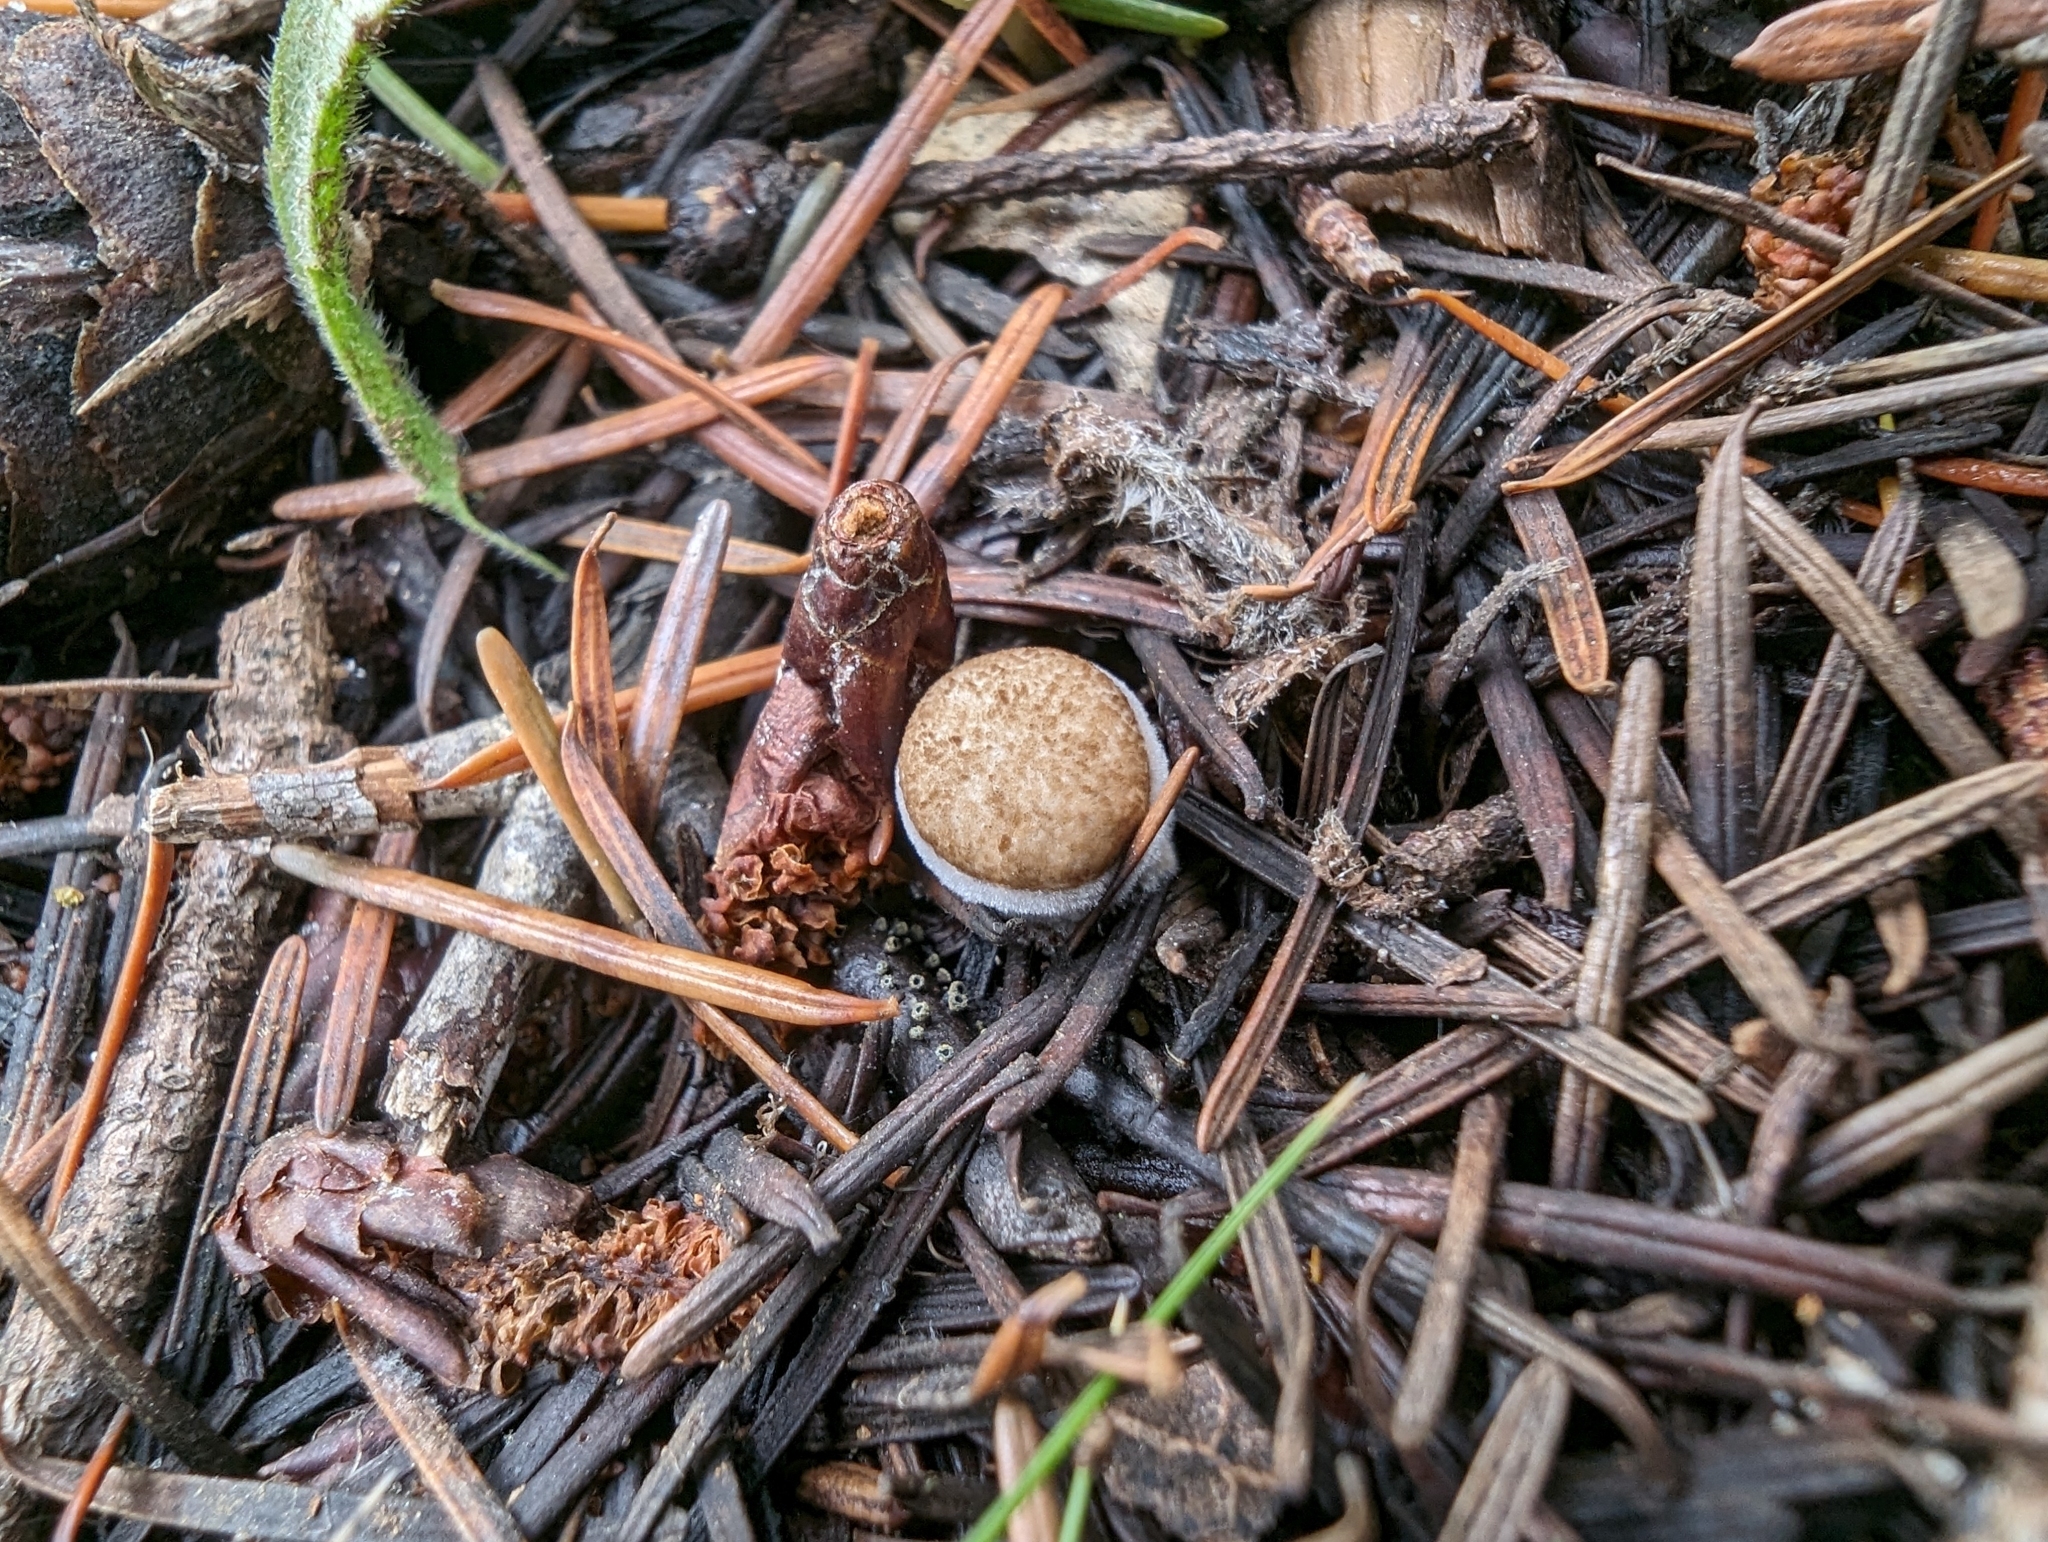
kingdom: Fungi
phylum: Basidiomycota
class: Agaricomycetes
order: Agaricales
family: Agaricaceae
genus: Nidula
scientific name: Nidula niveotomentosa
